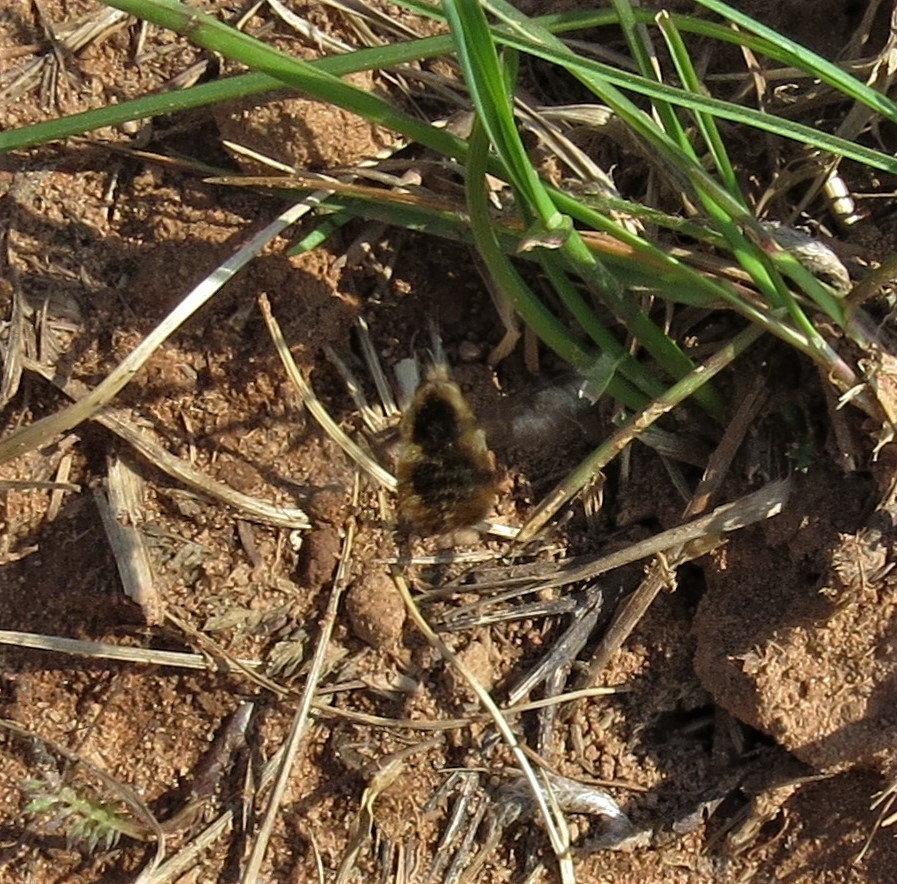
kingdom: Animalia
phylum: Arthropoda
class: Insecta
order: Diptera
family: Bombyliidae
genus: Bombylius
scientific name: Bombylius major
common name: Bee fly
